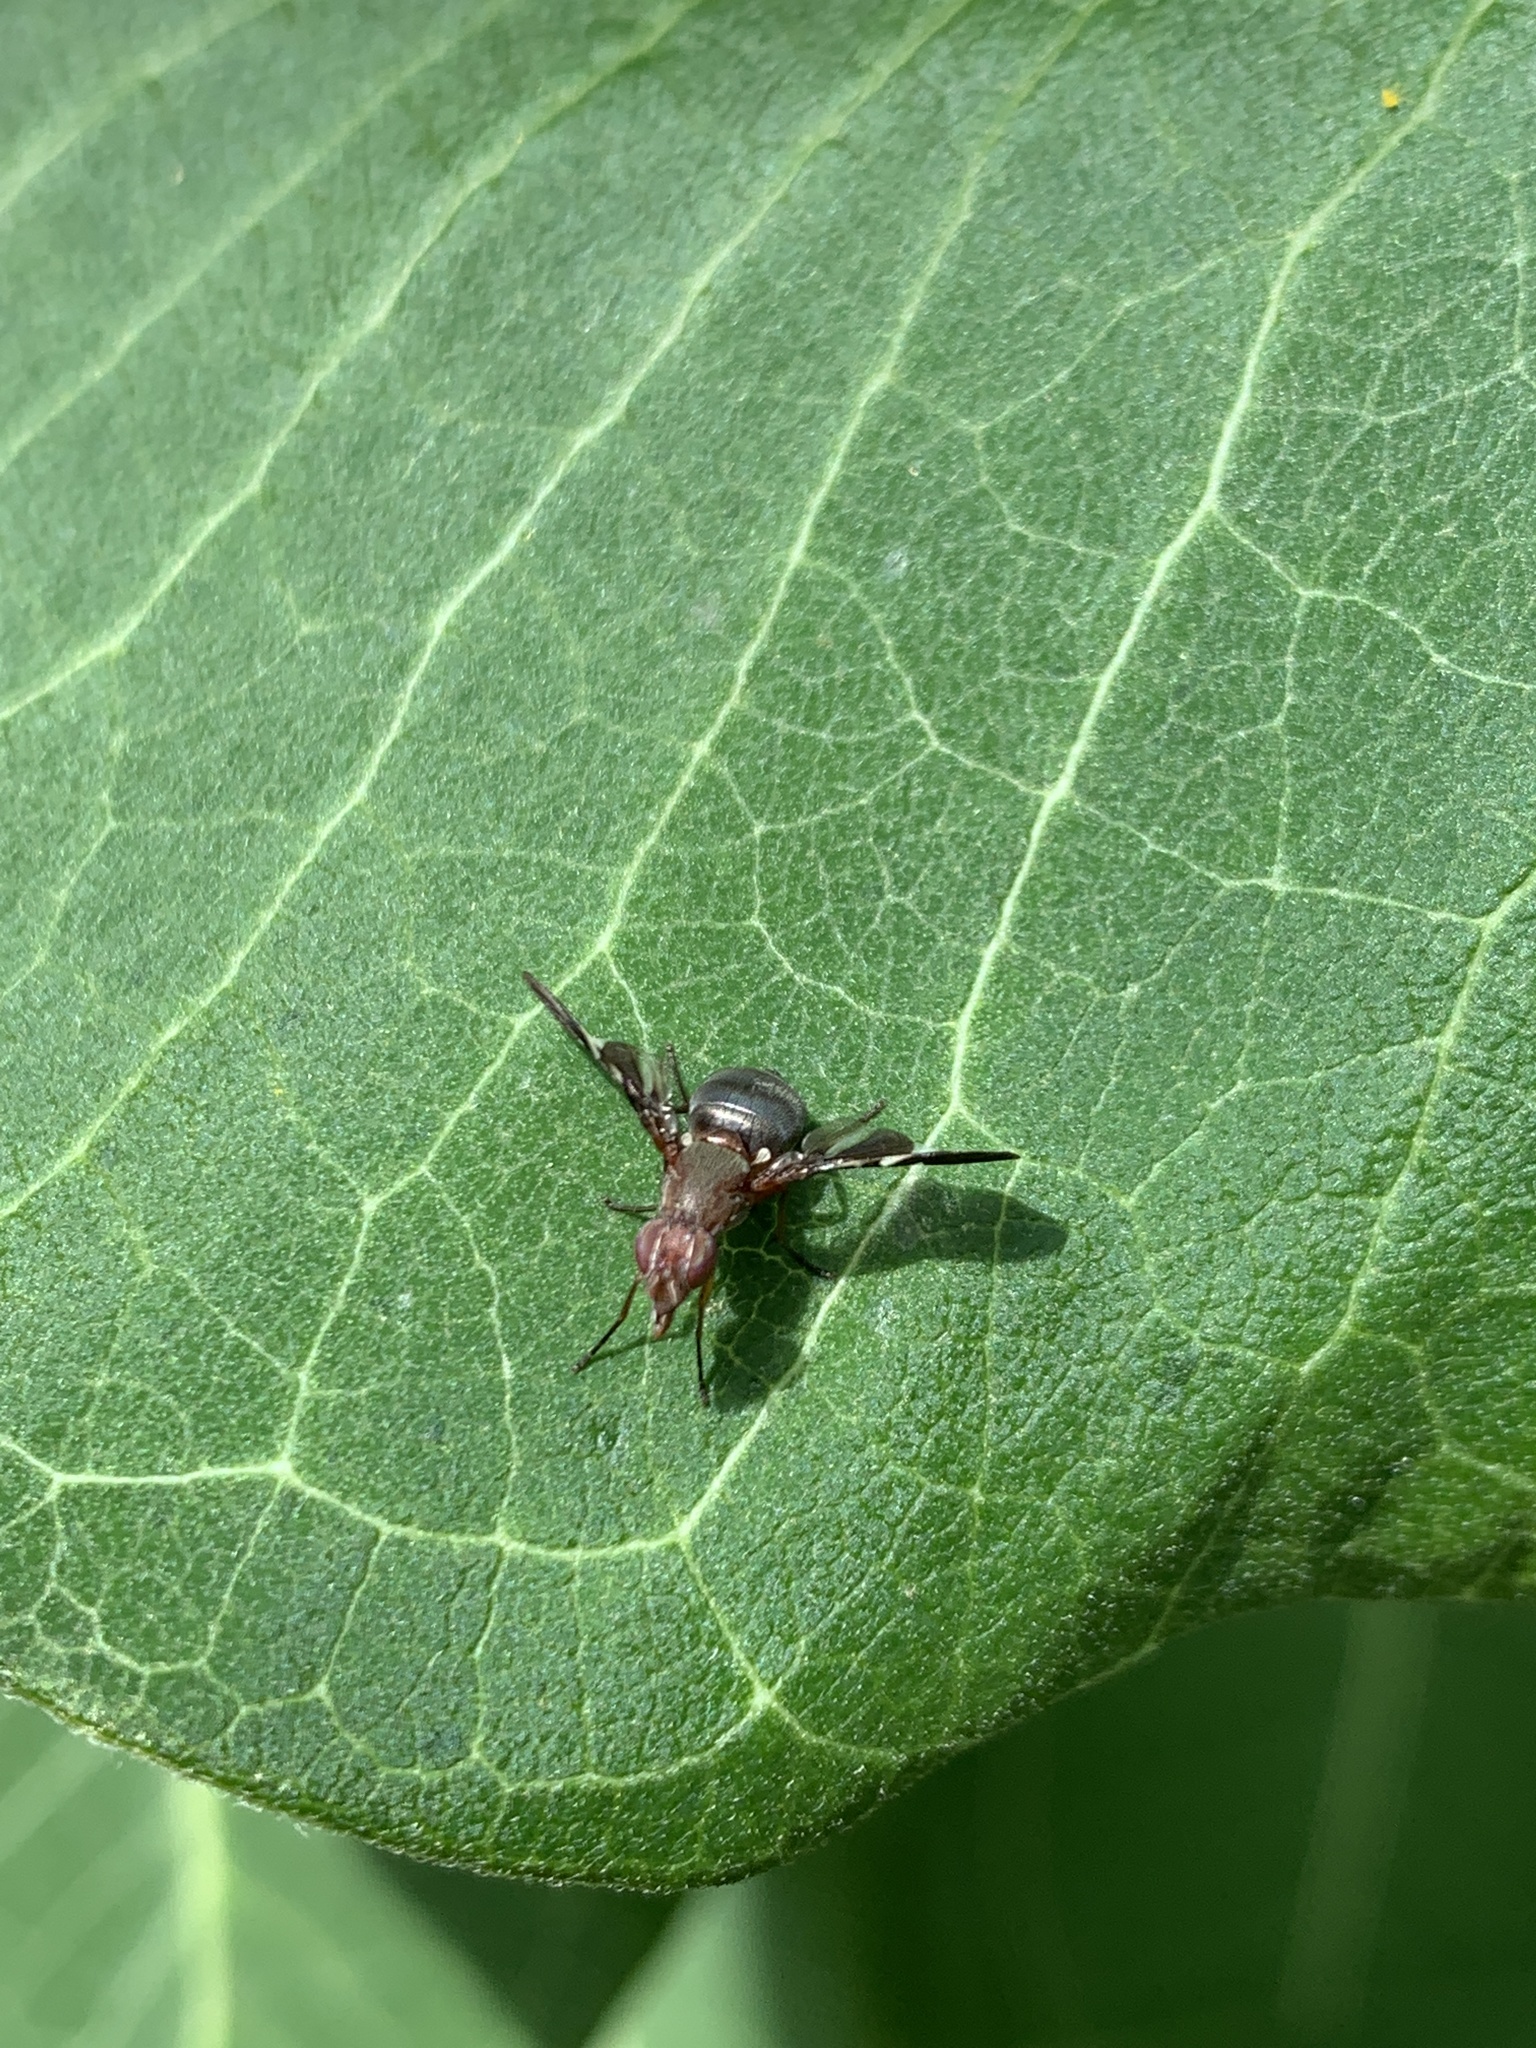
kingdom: Animalia
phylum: Arthropoda
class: Insecta
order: Diptera
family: Ulidiidae
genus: Delphinia
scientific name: Delphinia picta
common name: Common picture-winged fly
